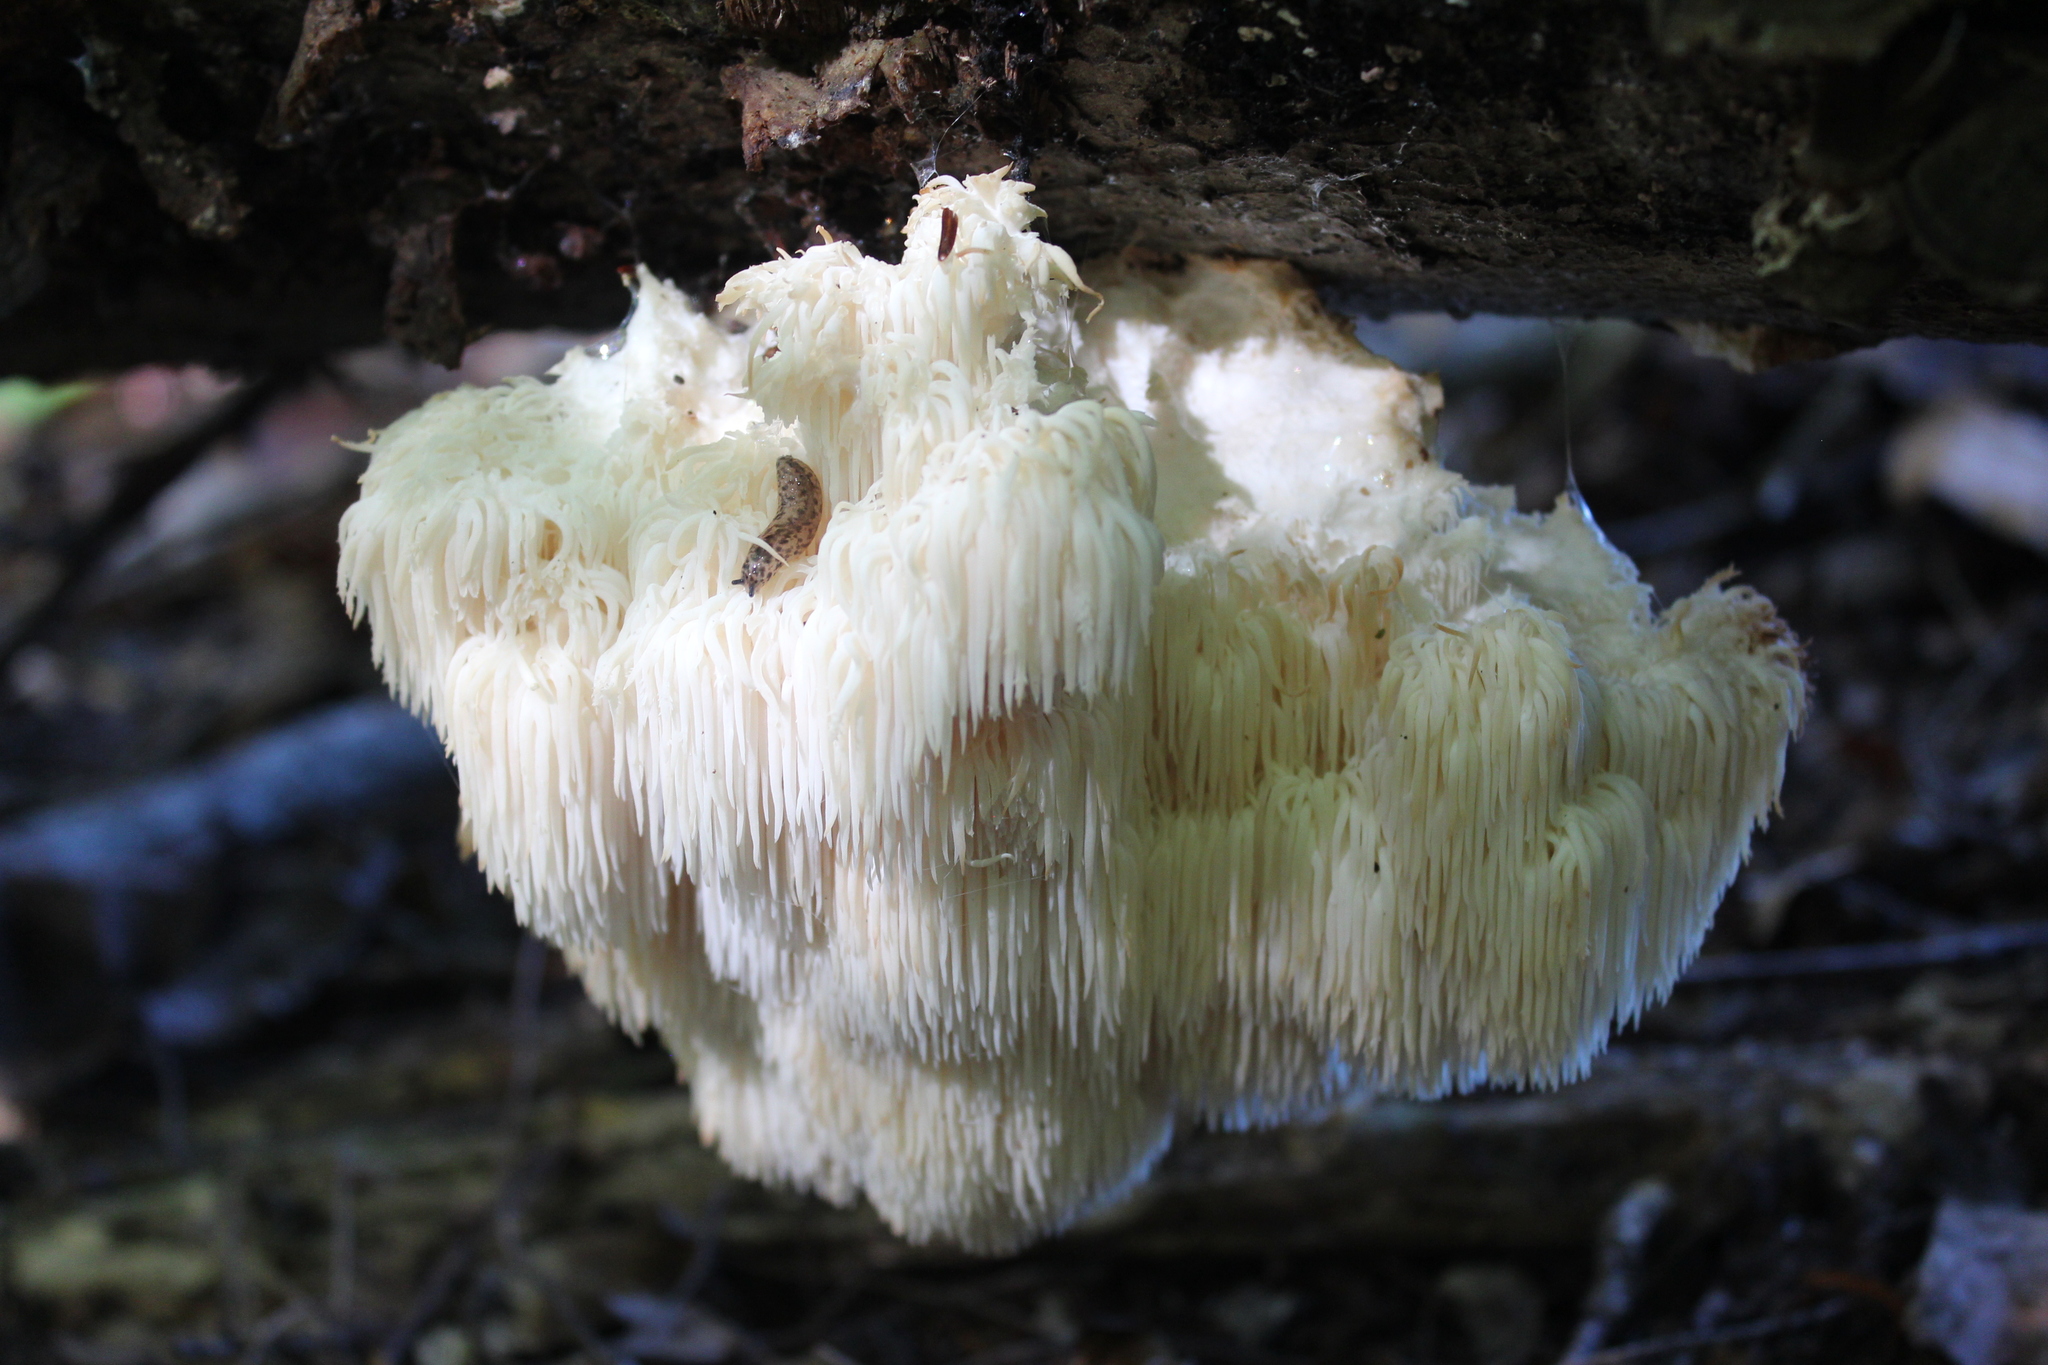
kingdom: Fungi
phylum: Basidiomycota
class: Agaricomycetes
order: Russulales
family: Hericiaceae
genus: Hericium
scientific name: Hericium americanum
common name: Bear's head tooth
